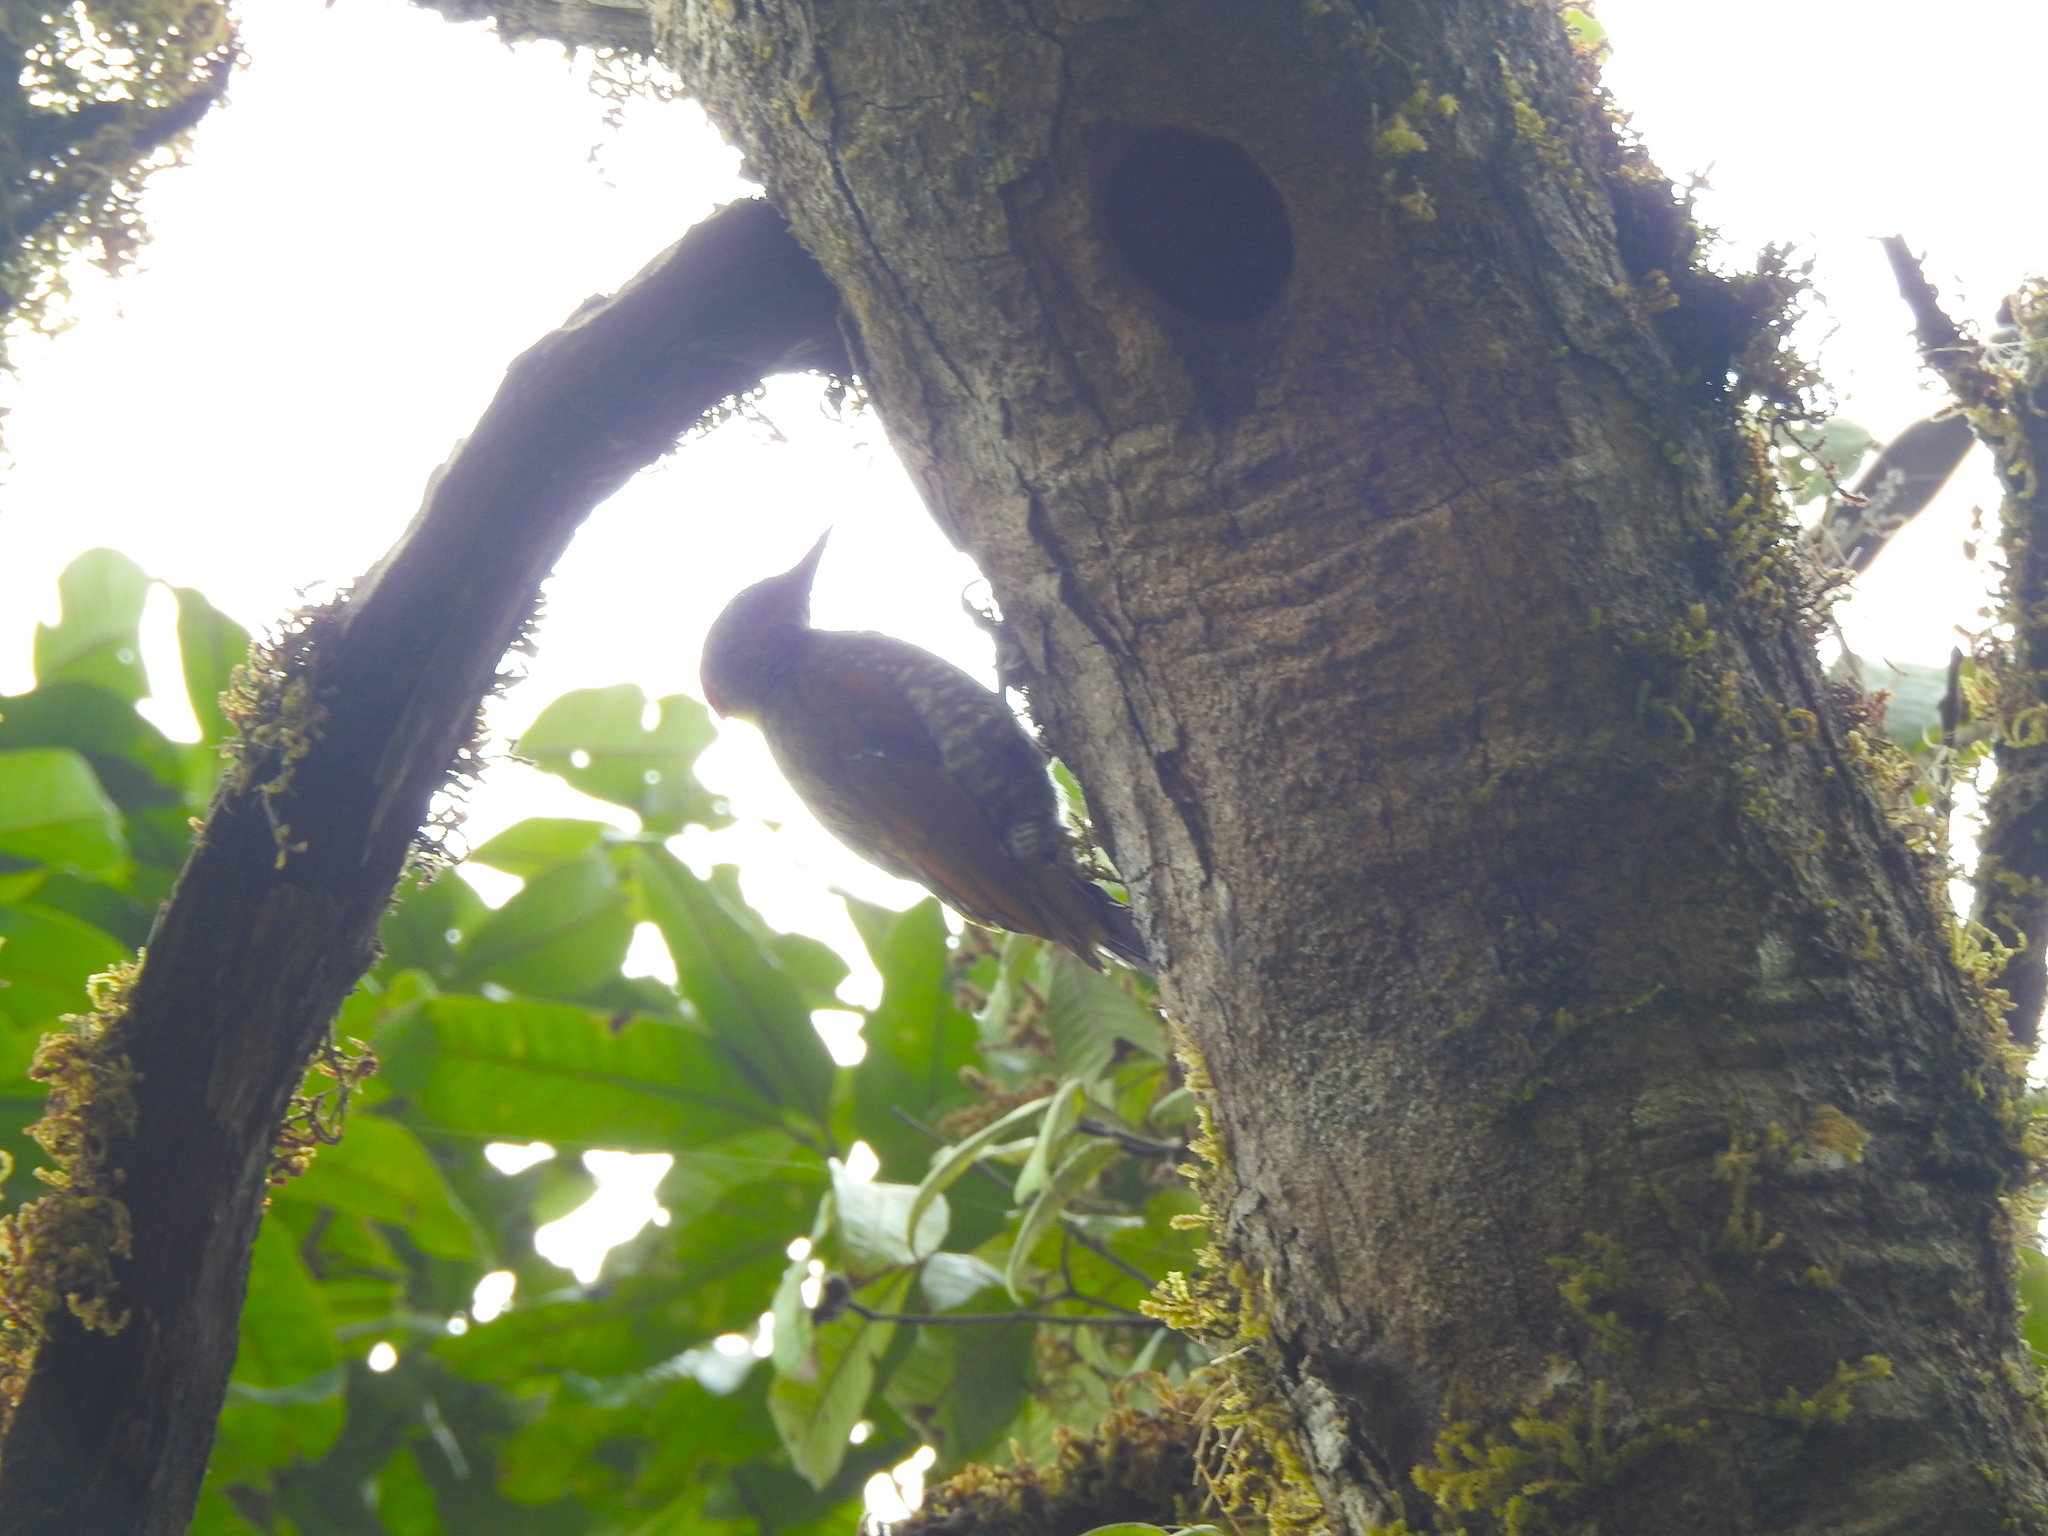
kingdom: Animalia
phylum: Chordata
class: Aves
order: Piciformes
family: Picidae
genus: Picus
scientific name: Picus chlorolophus
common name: Lesser yellownape
